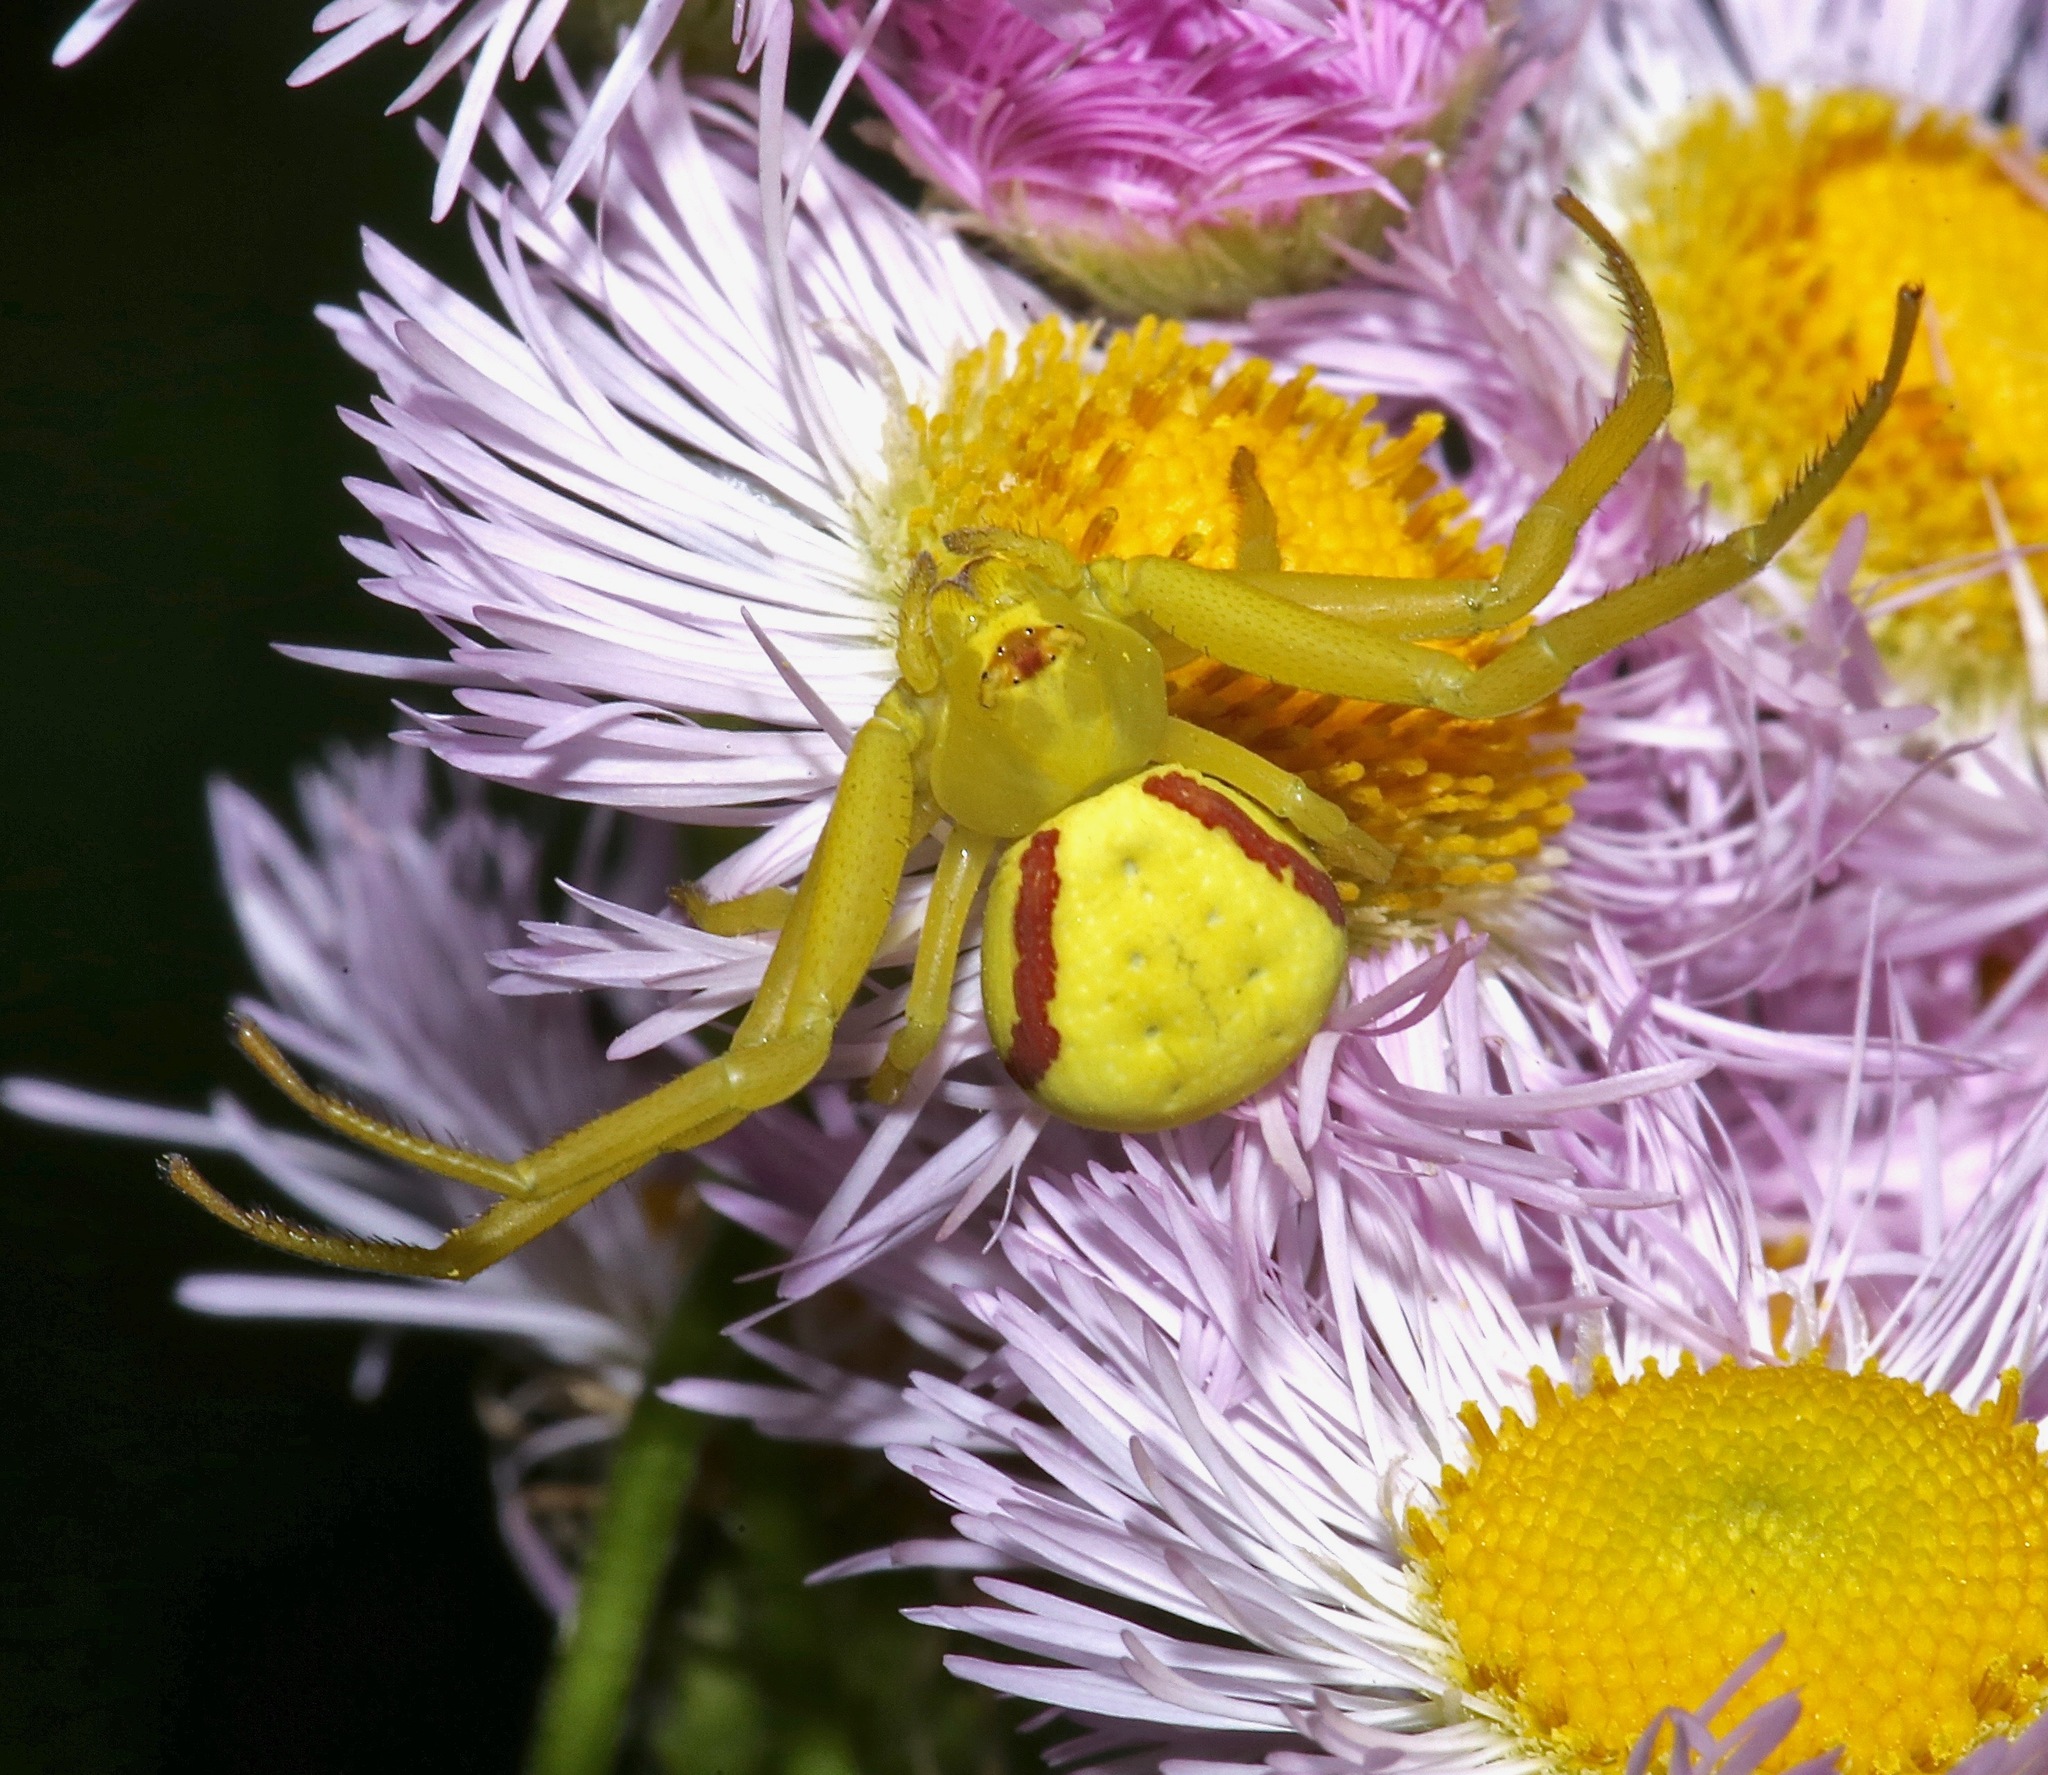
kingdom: Animalia
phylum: Arthropoda
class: Arachnida
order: Araneae
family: Thomisidae
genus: Misumena
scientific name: Misumena vatia
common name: Goldenrod crab spider
